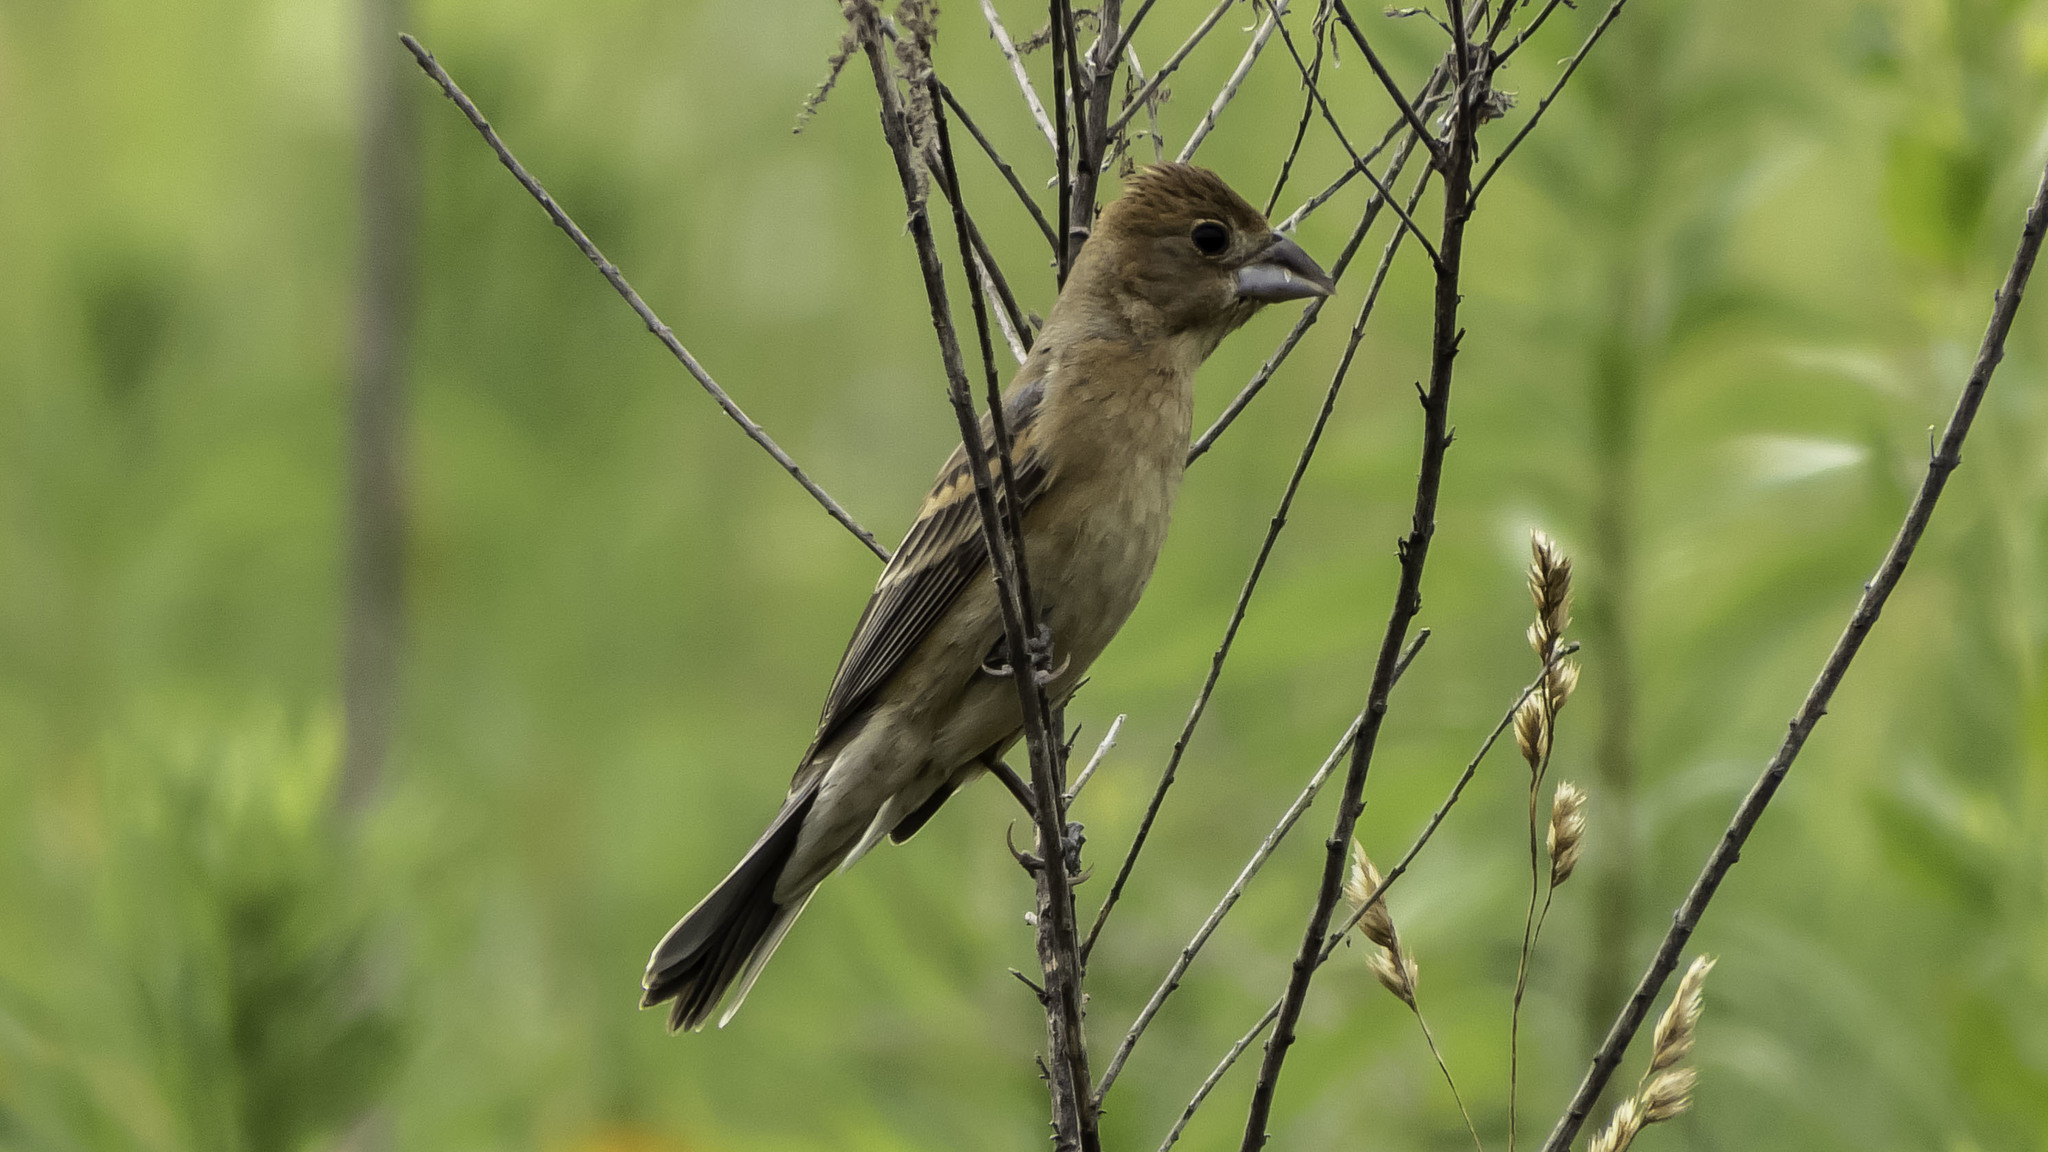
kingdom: Animalia
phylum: Chordata
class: Aves
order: Passeriformes
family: Cardinalidae
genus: Passerina
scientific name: Passerina caerulea
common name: Blue grosbeak
